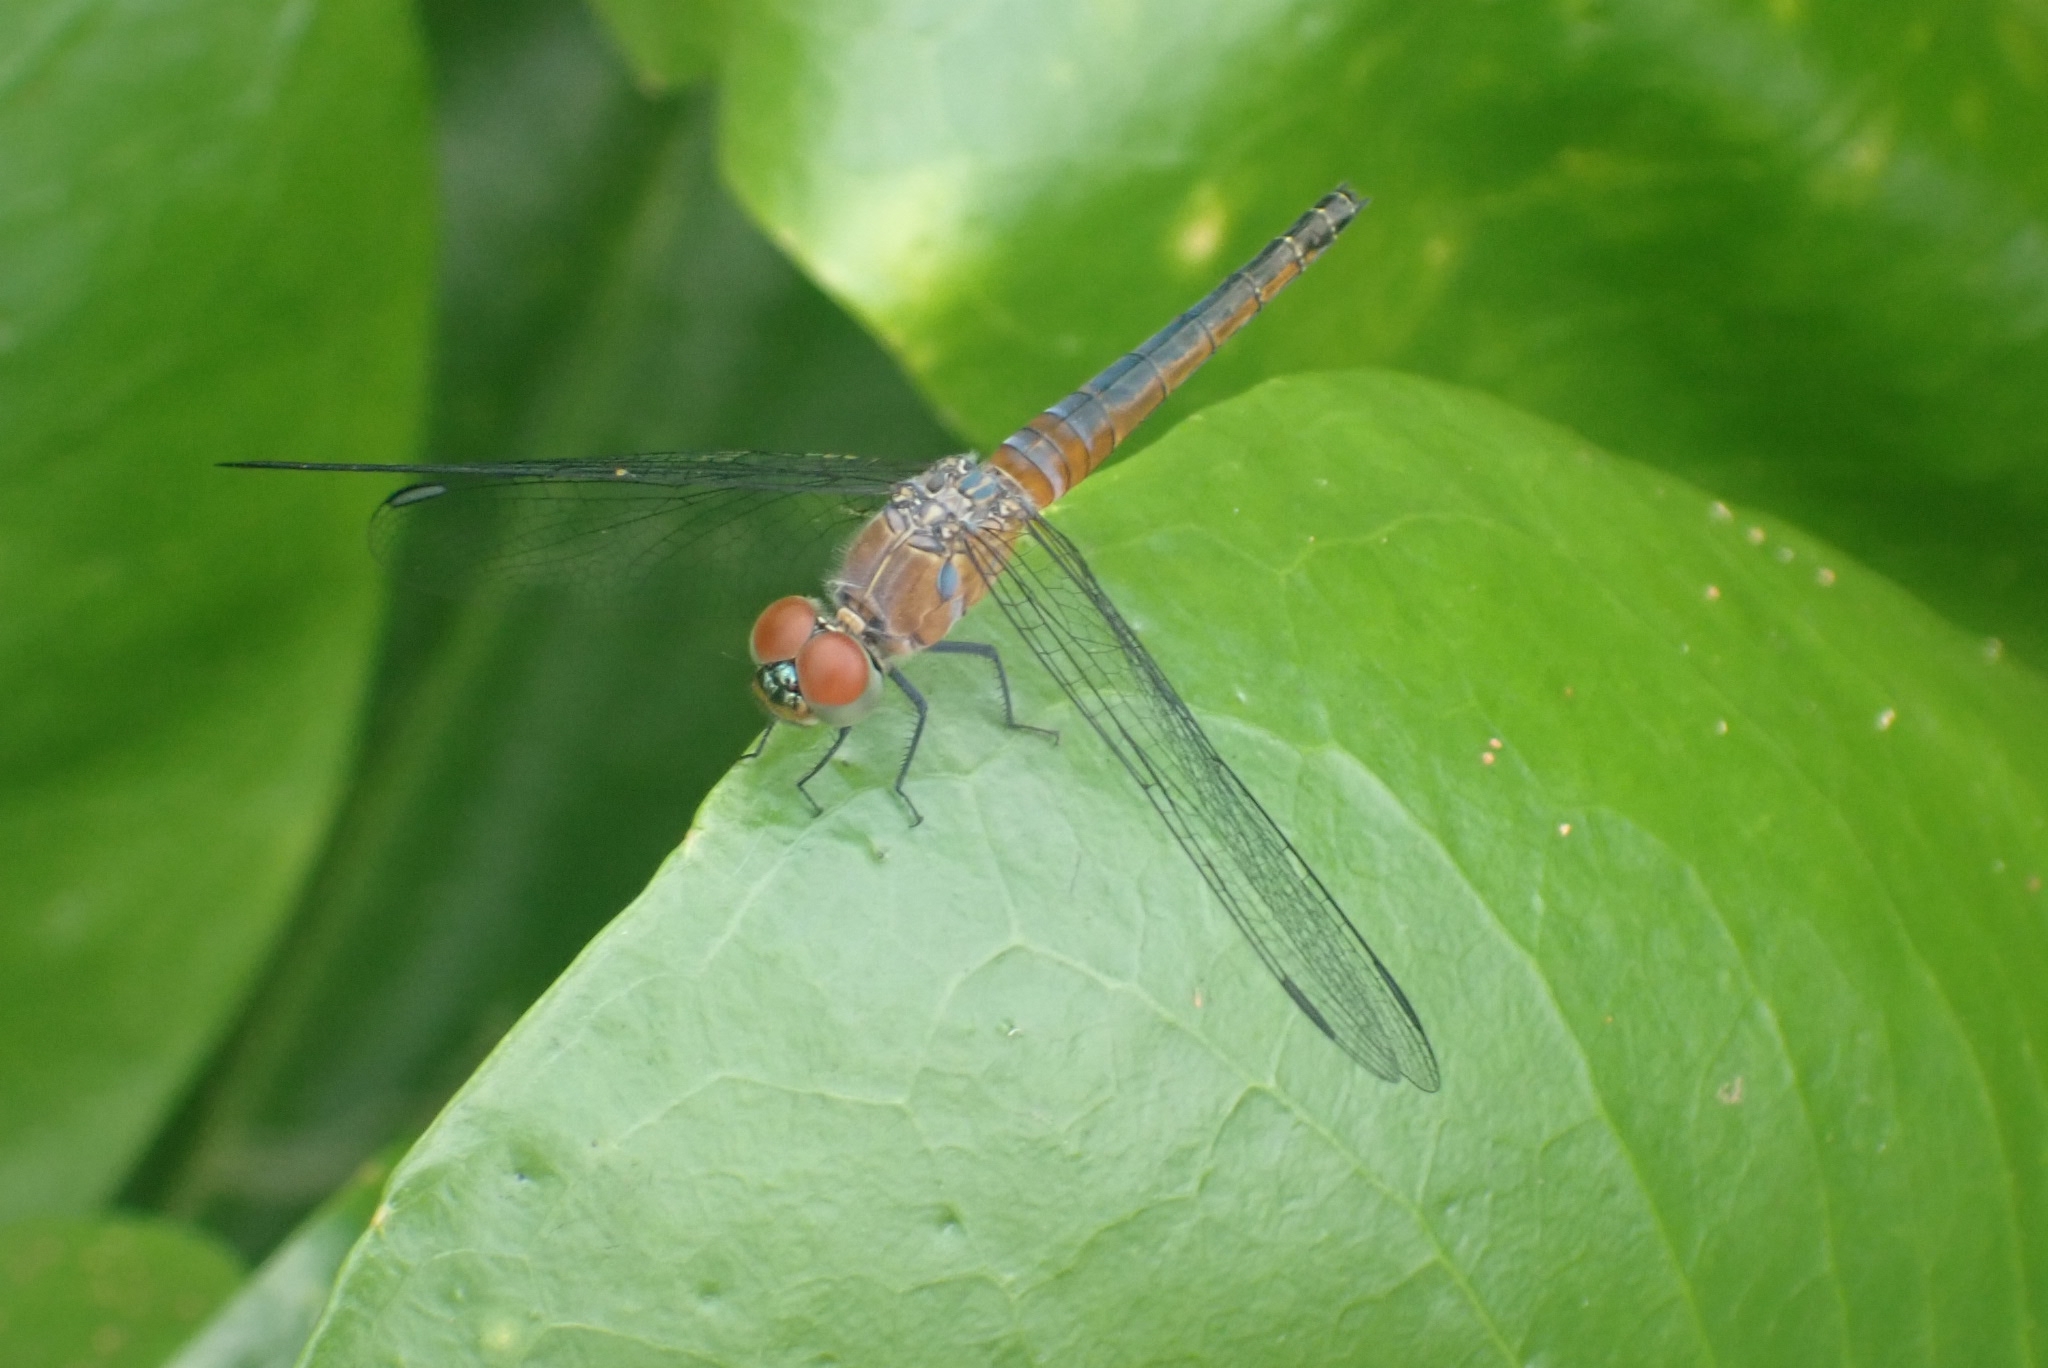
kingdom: Animalia
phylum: Arthropoda
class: Insecta
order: Odonata
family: Libellulidae
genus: Brachydiplax
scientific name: Brachydiplax chalybea
